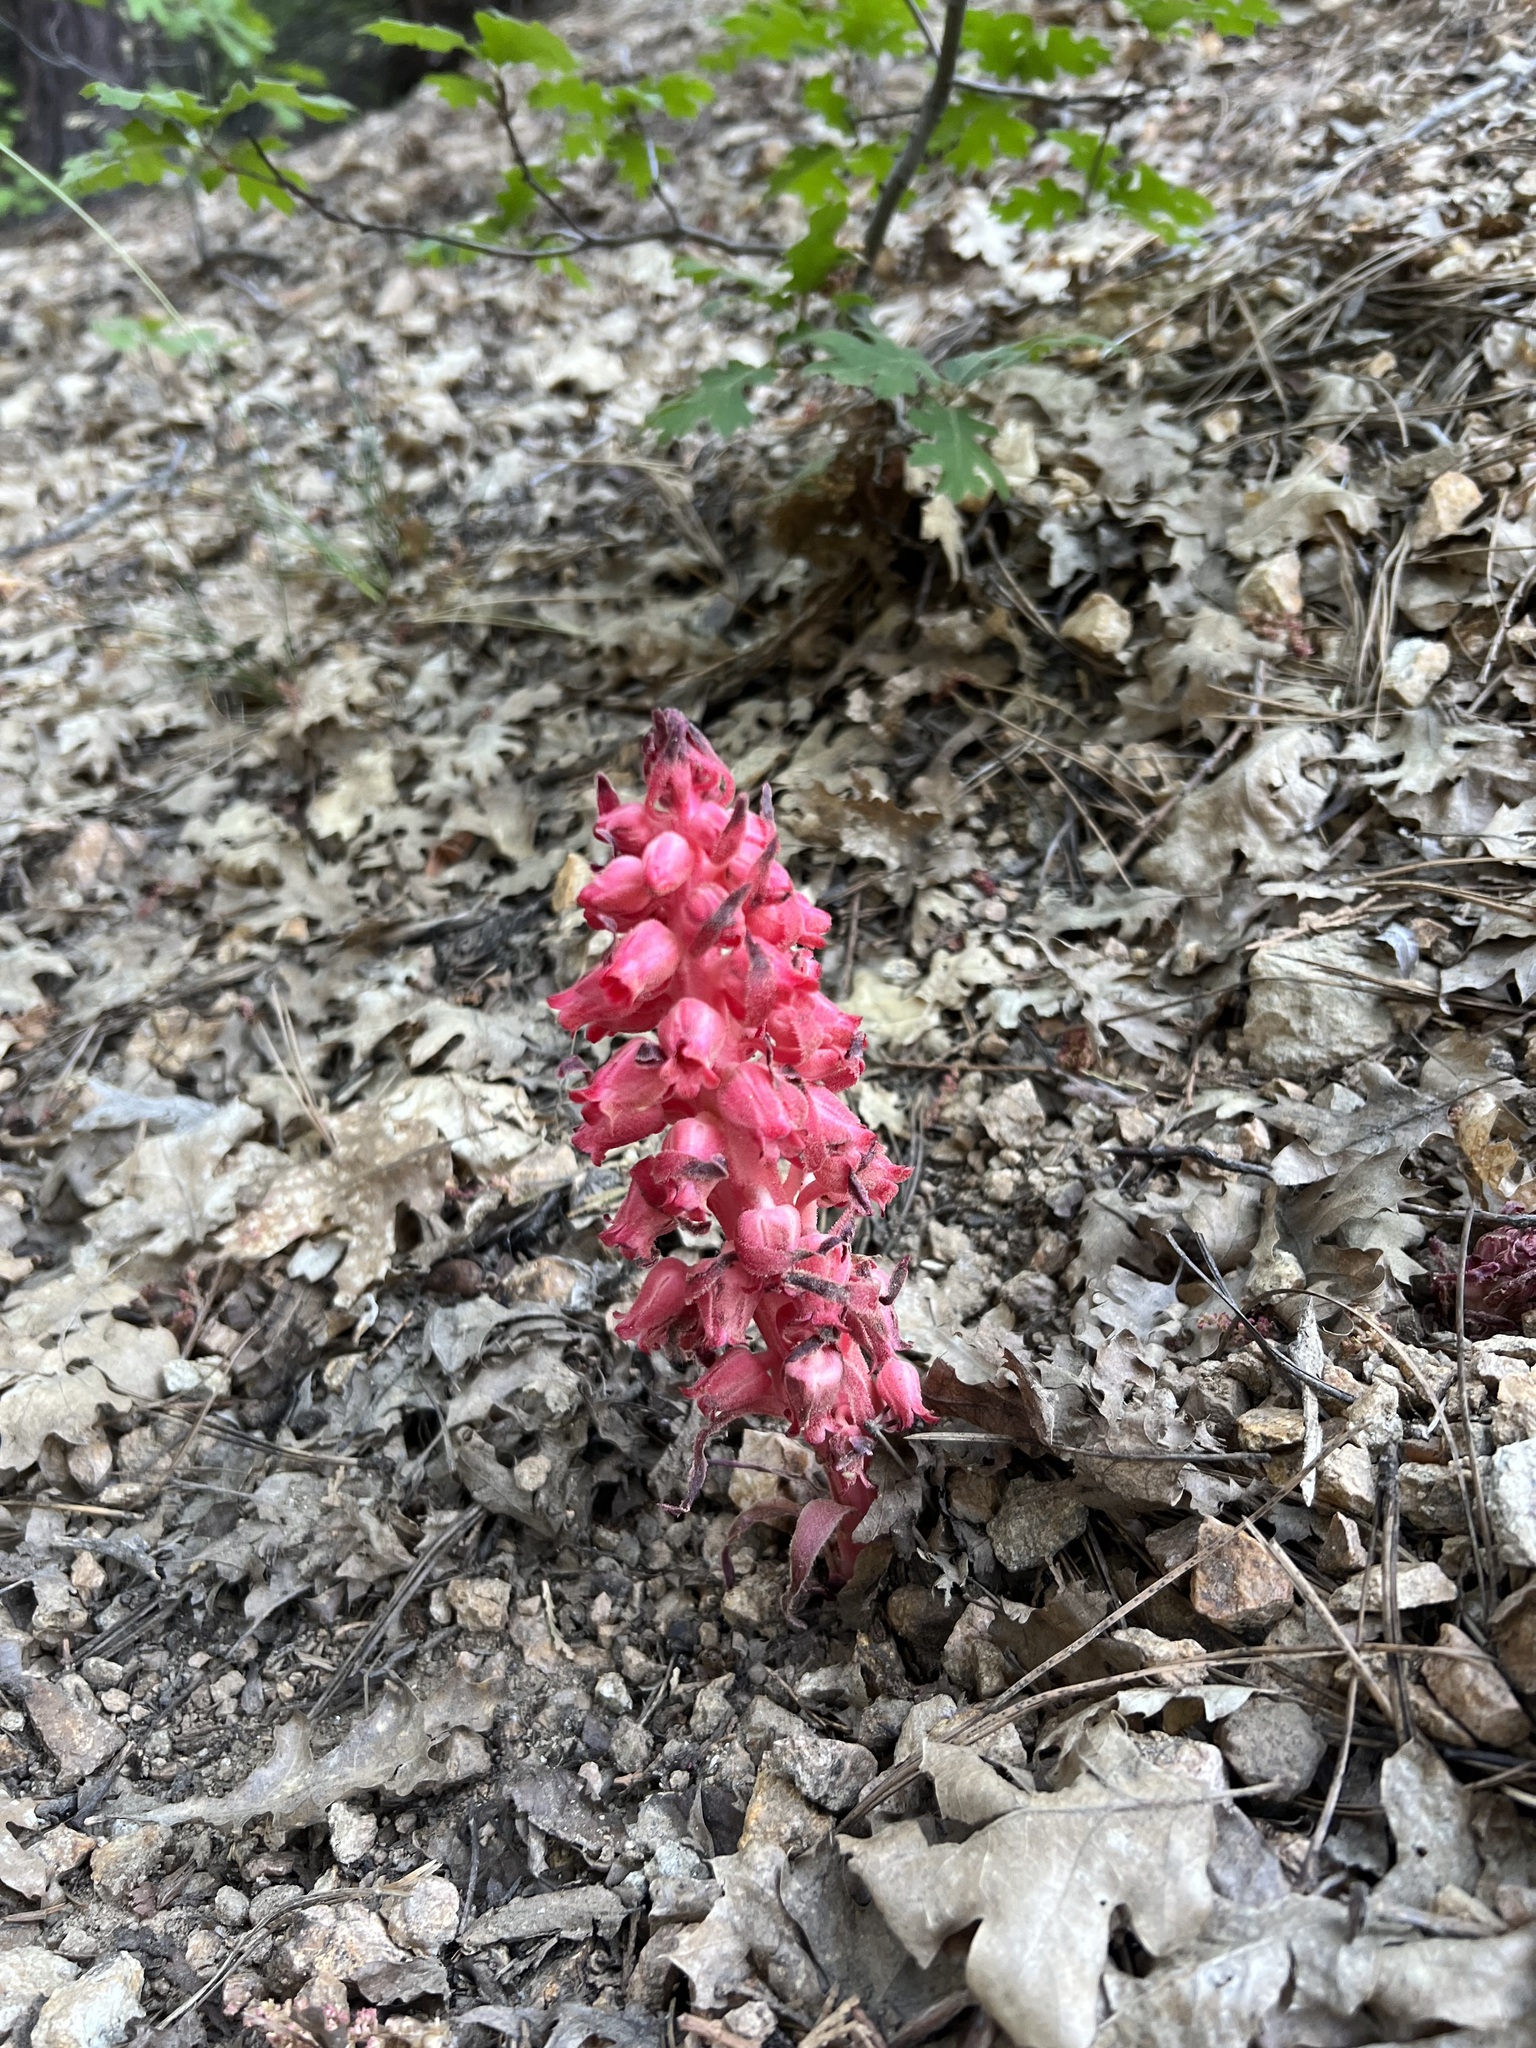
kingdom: Plantae
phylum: Tracheophyta
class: Magnoliopsida
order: Ericales
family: Ericaceae
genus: Sarcodes
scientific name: Sarcodes sanguinea
